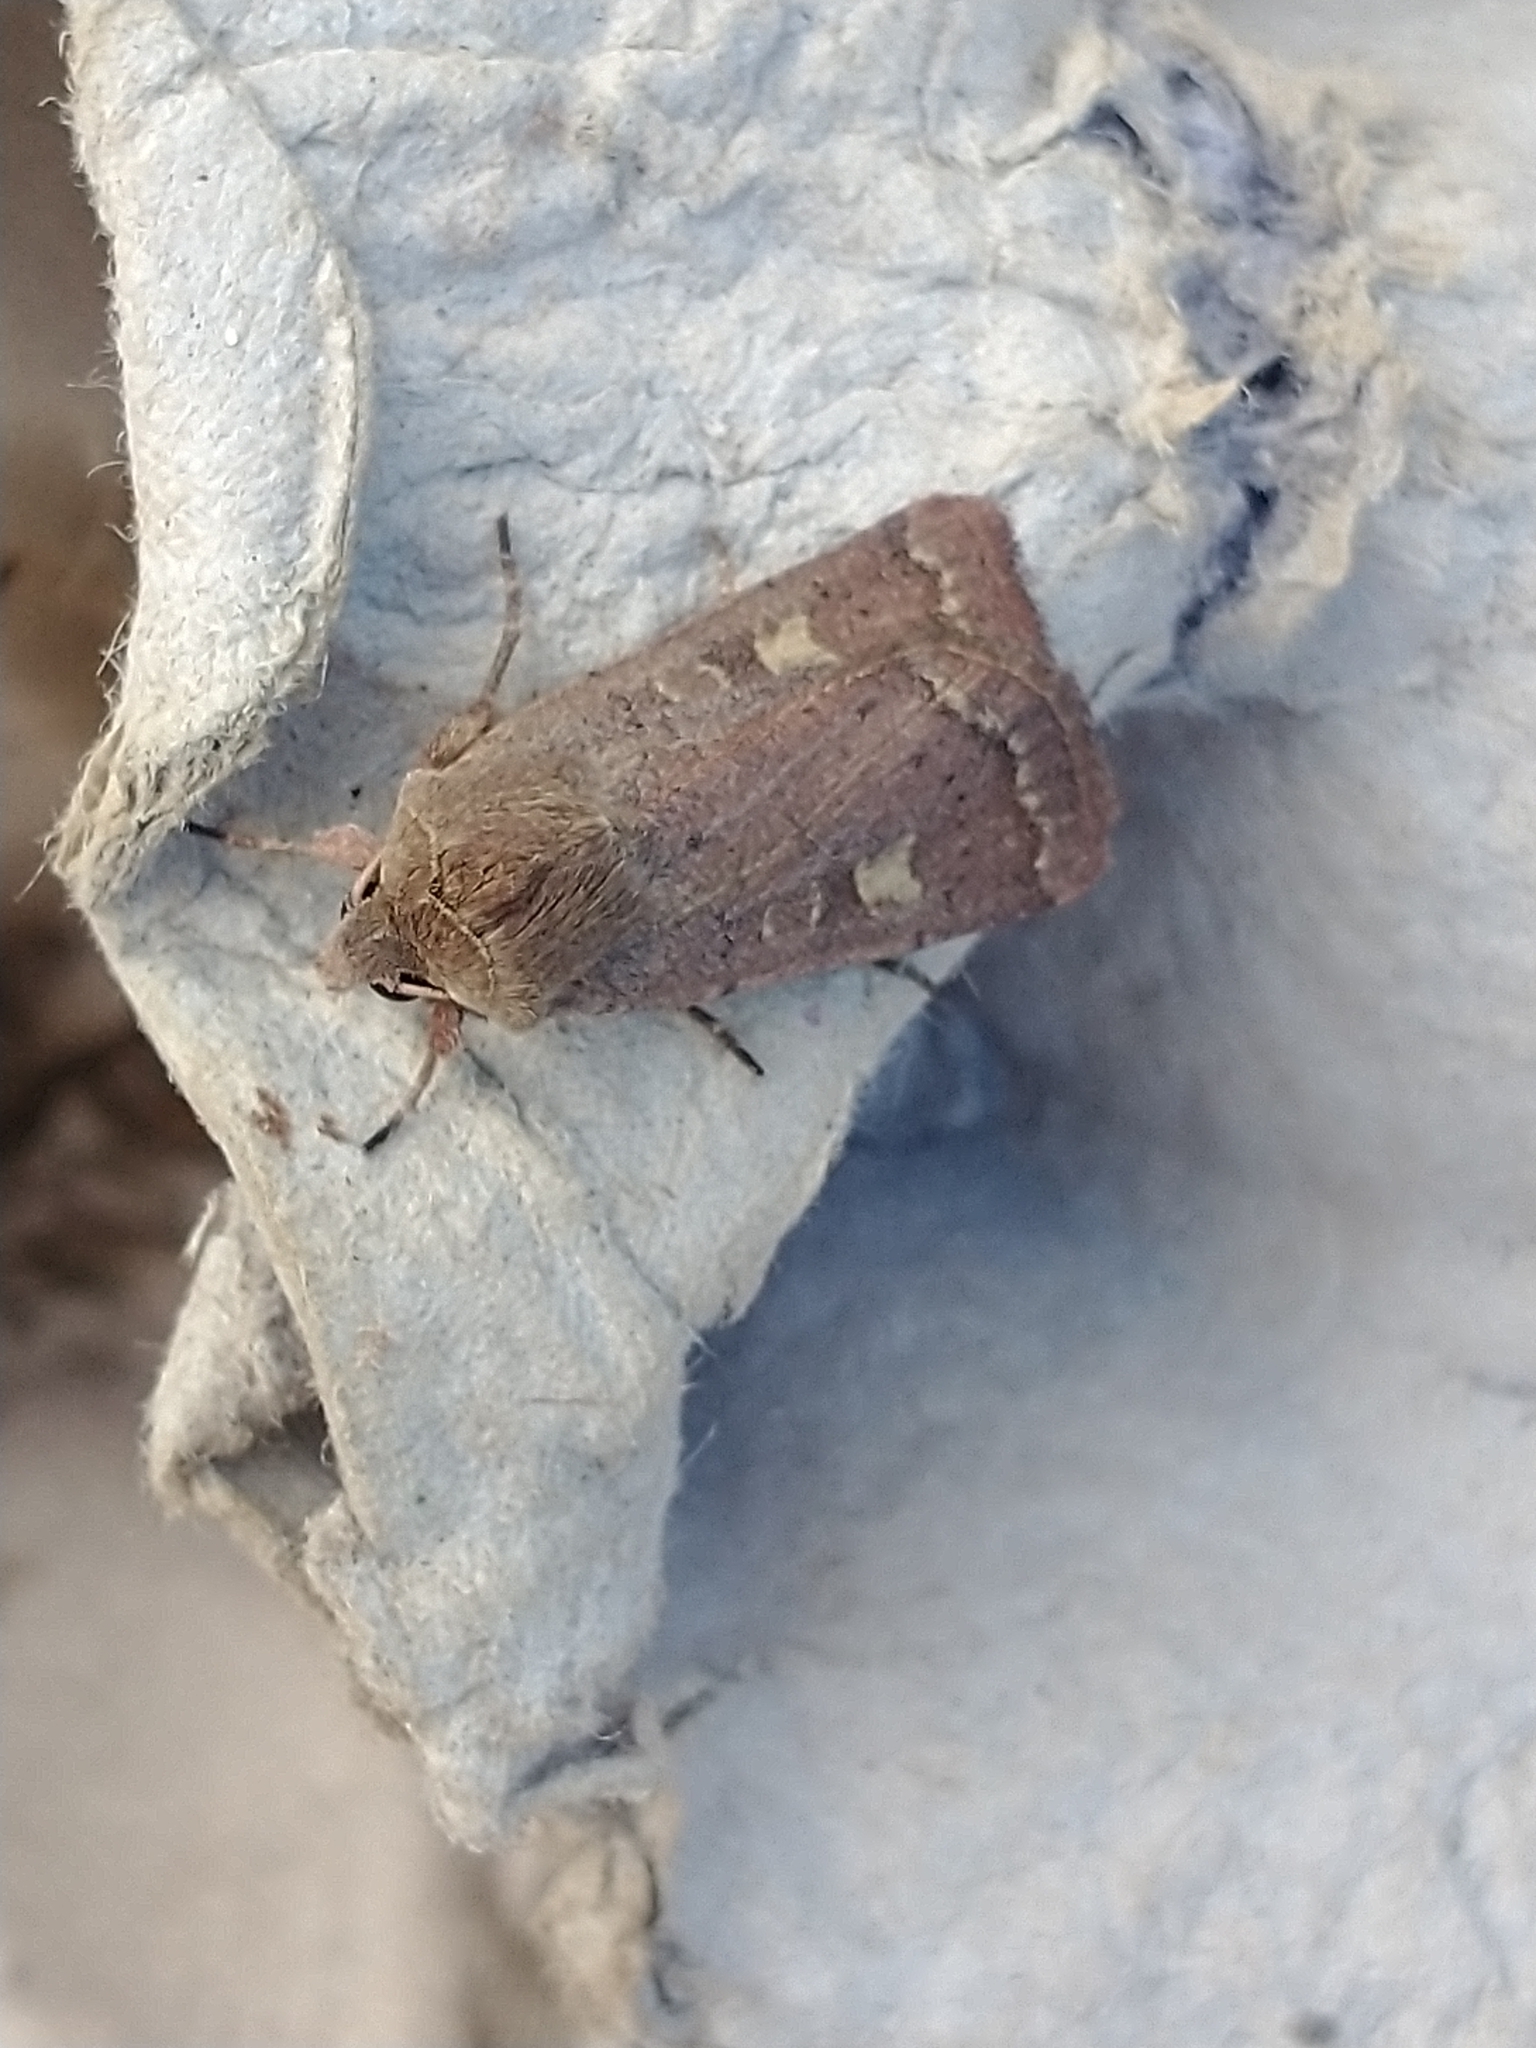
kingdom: Animalia
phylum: Arthropoda
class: Insecta
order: Lepidoptera
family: Noctuidae
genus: Xestia
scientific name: Xestia xanthographa
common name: Square-spot rustic
